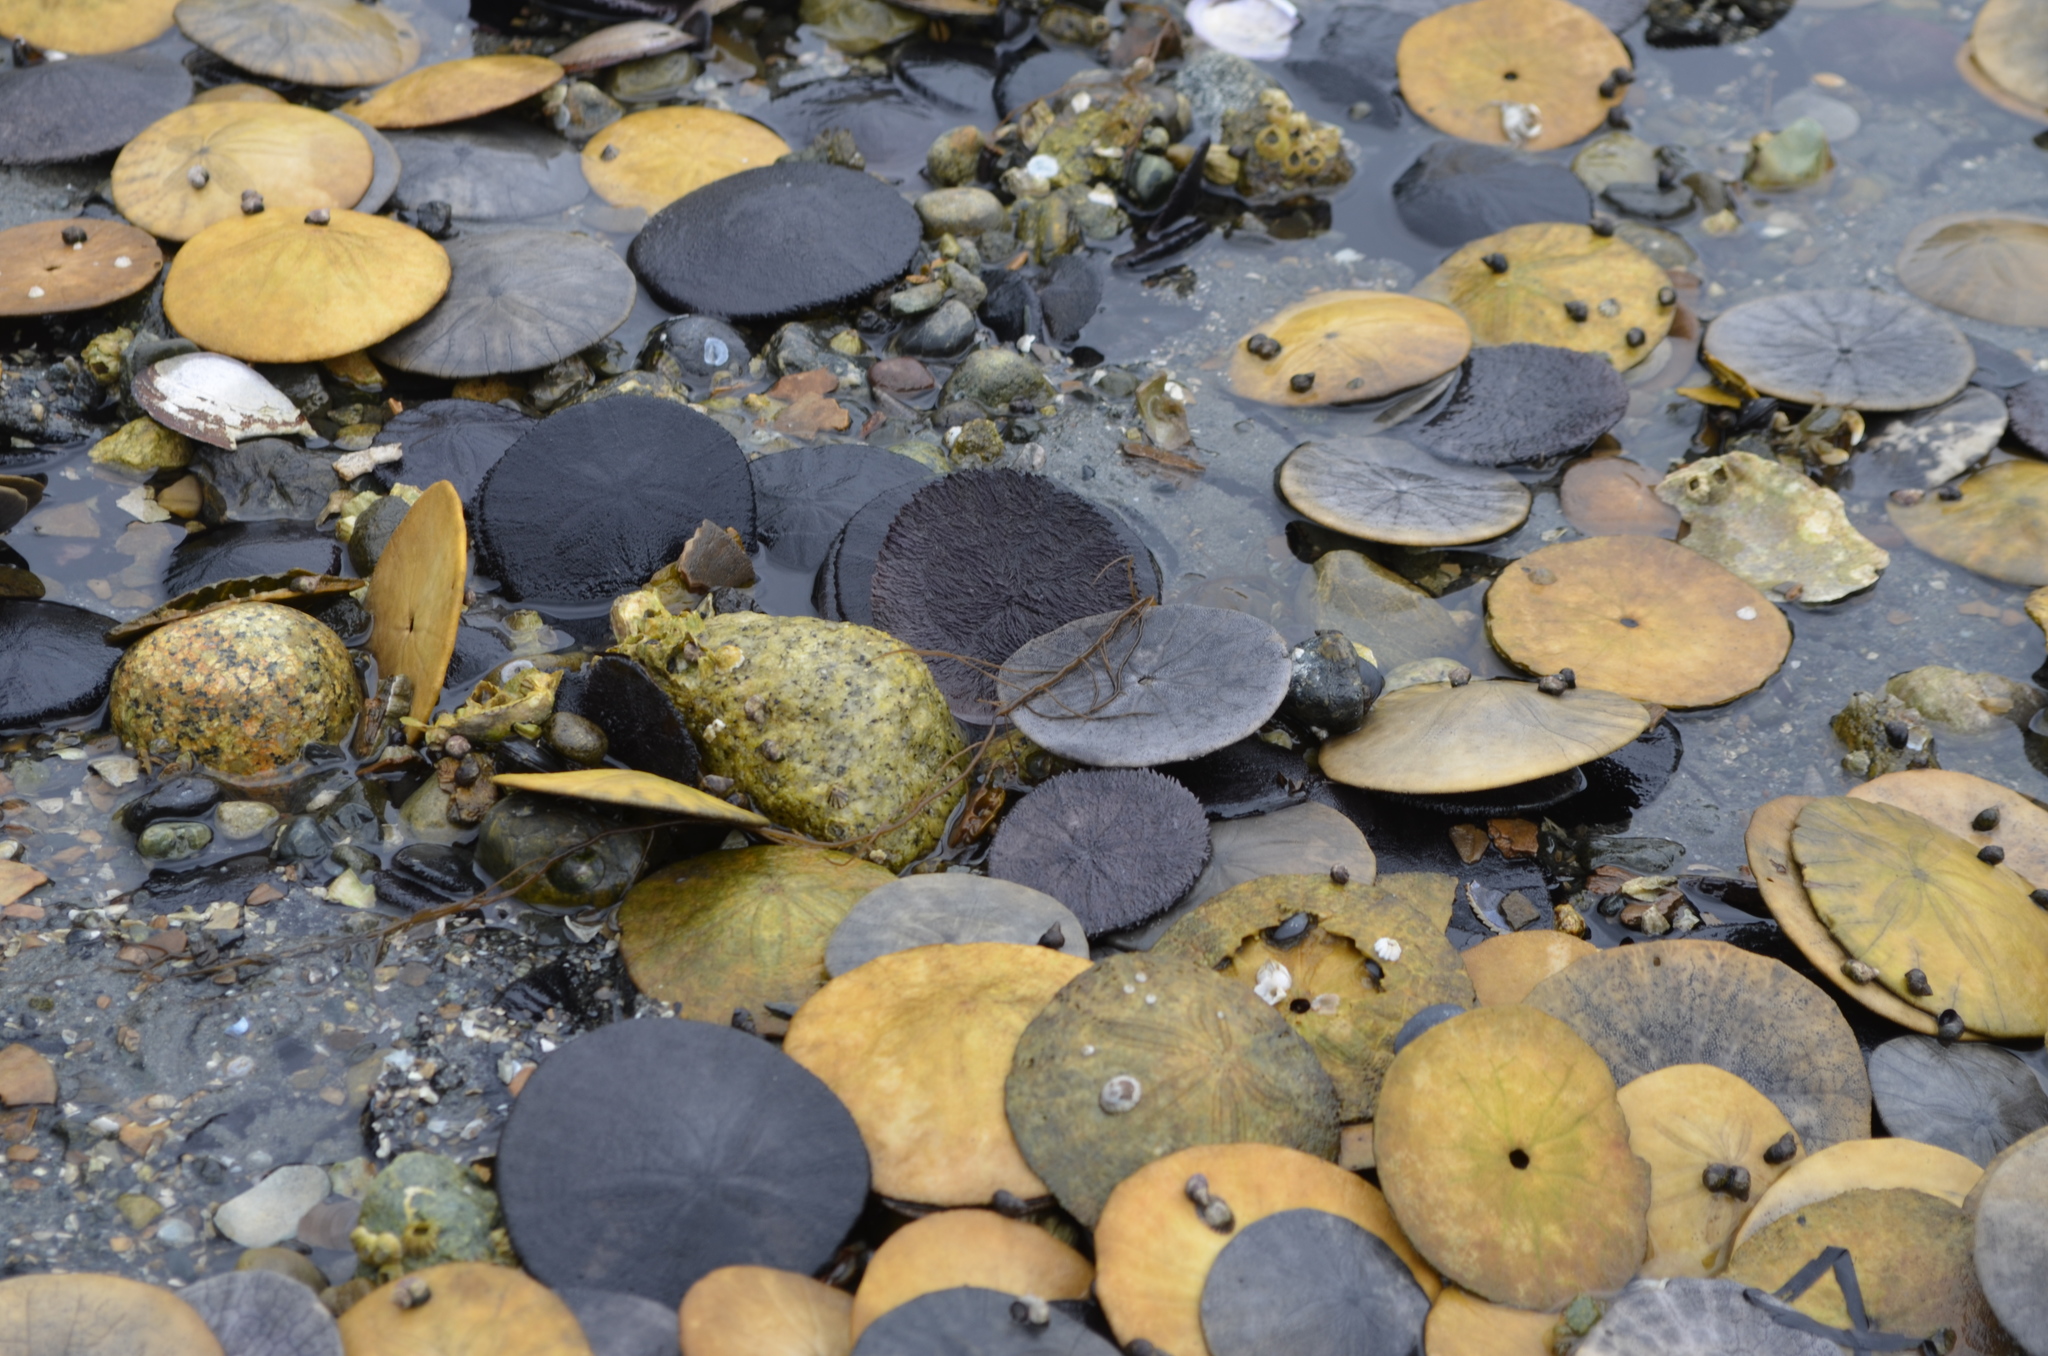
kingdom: Animalia
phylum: Echinodermata
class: Echinoidea
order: Echinolampadacea
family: Dendrasteridae
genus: Dendraster
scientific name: Dendraster excentricus
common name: Eccentric sand dollar sea urchin
